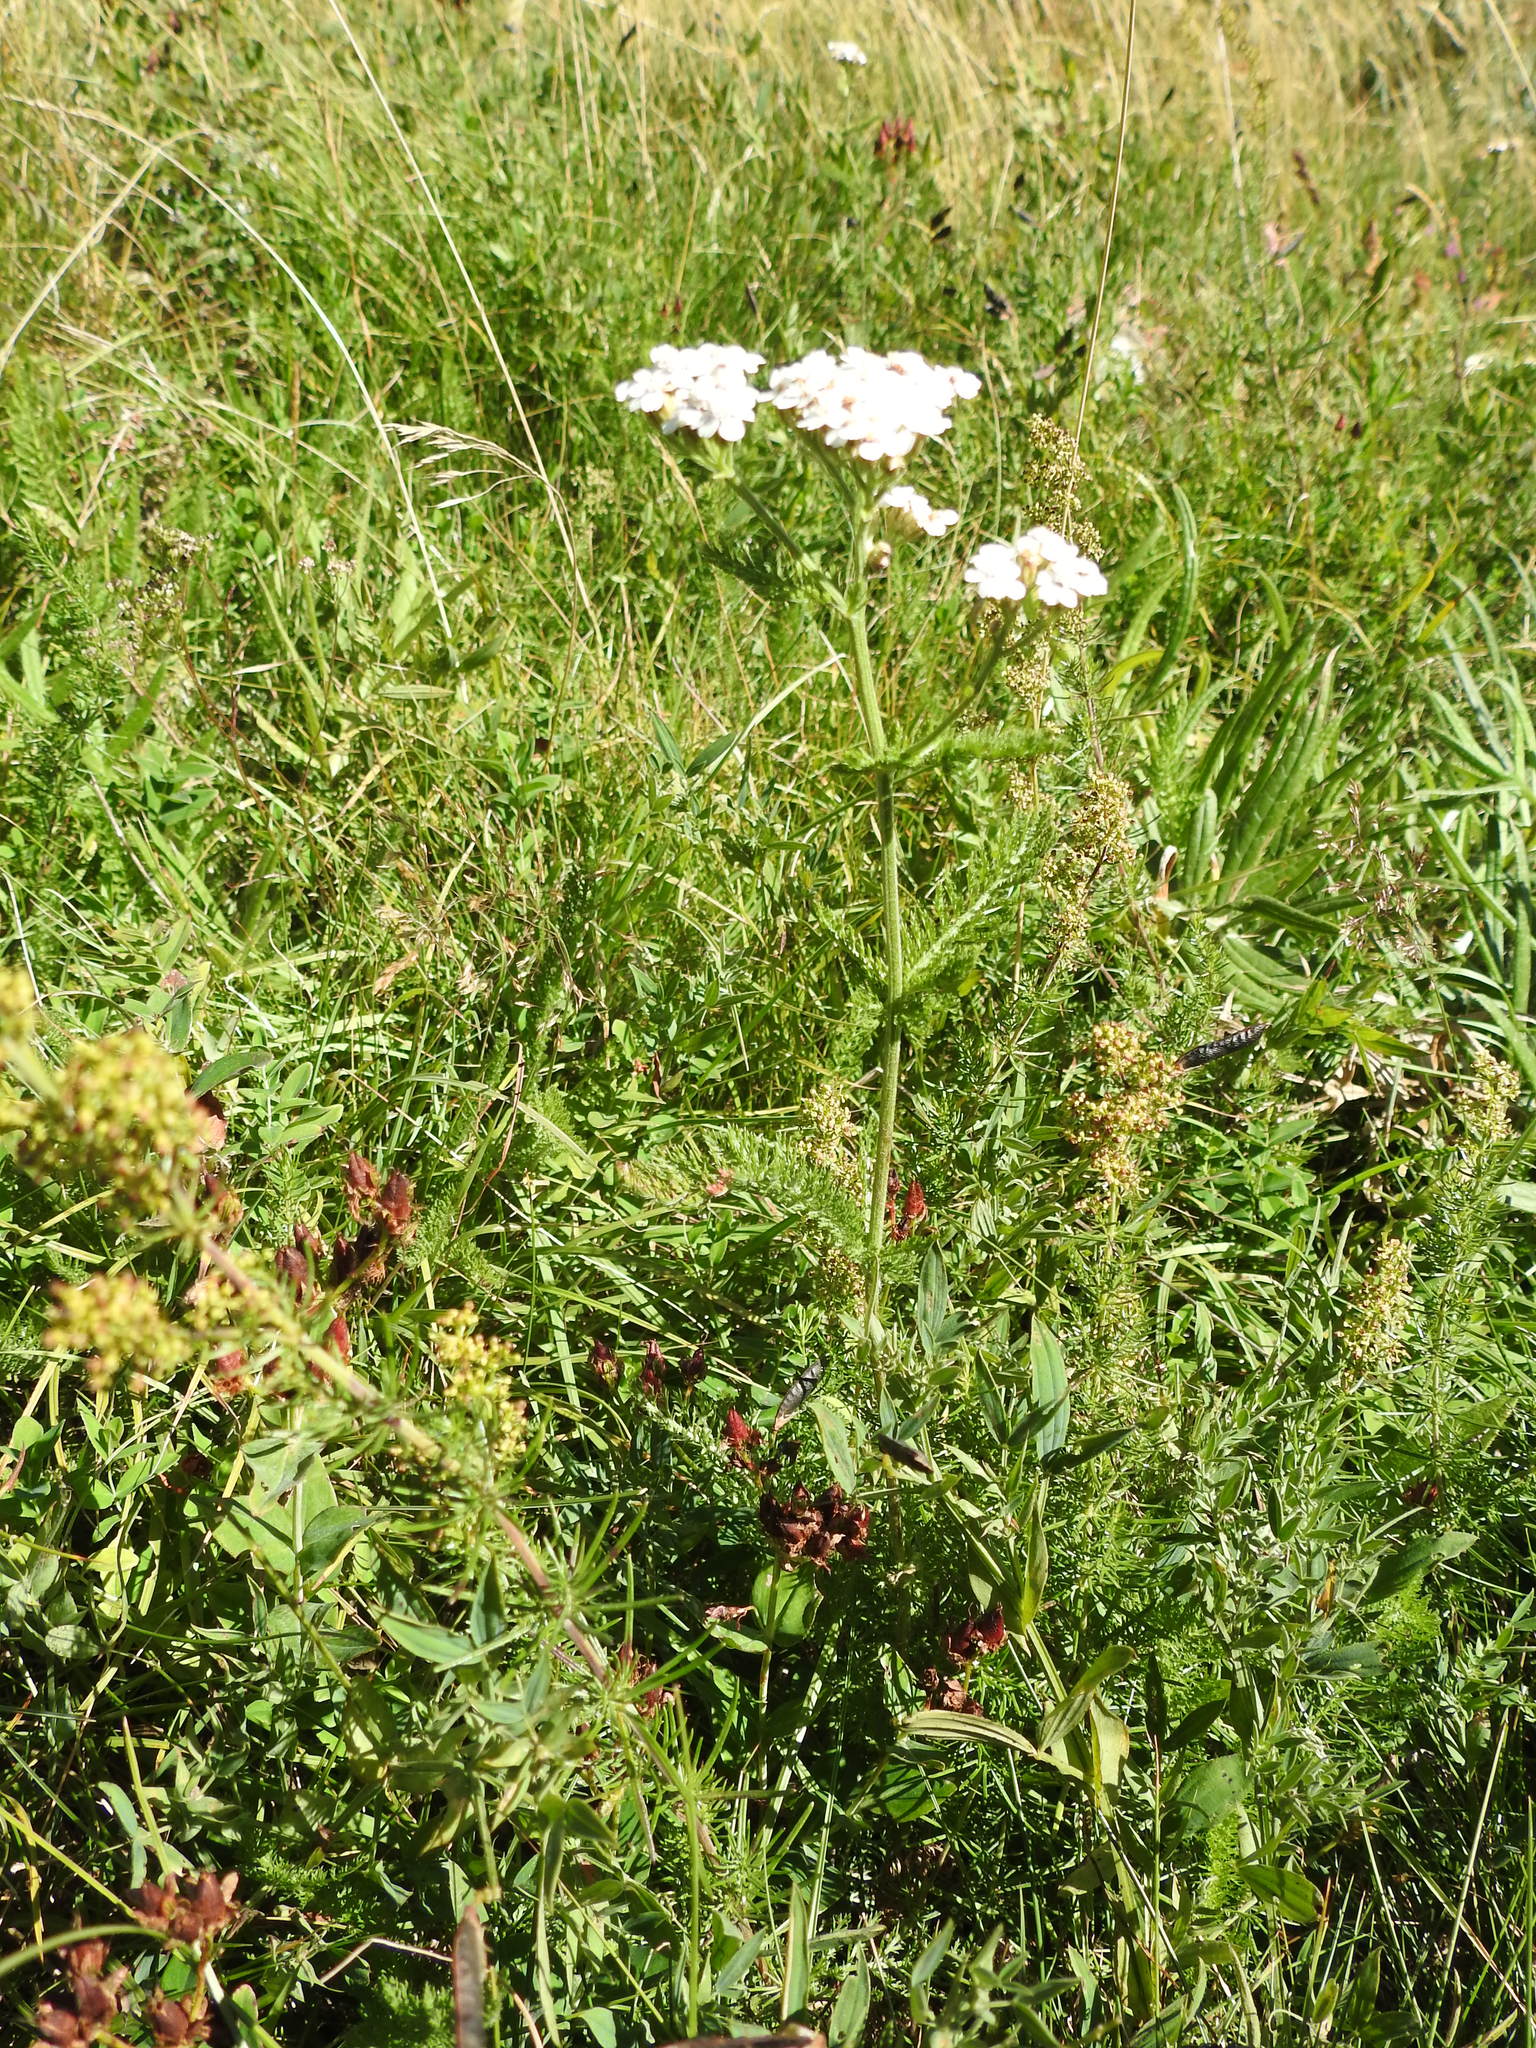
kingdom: Plantae
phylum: Tracheophyta
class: Magnoliopsida
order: Asterales
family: Asteraceae
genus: Achillea
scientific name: Achillea millefolium
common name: Yarrow
